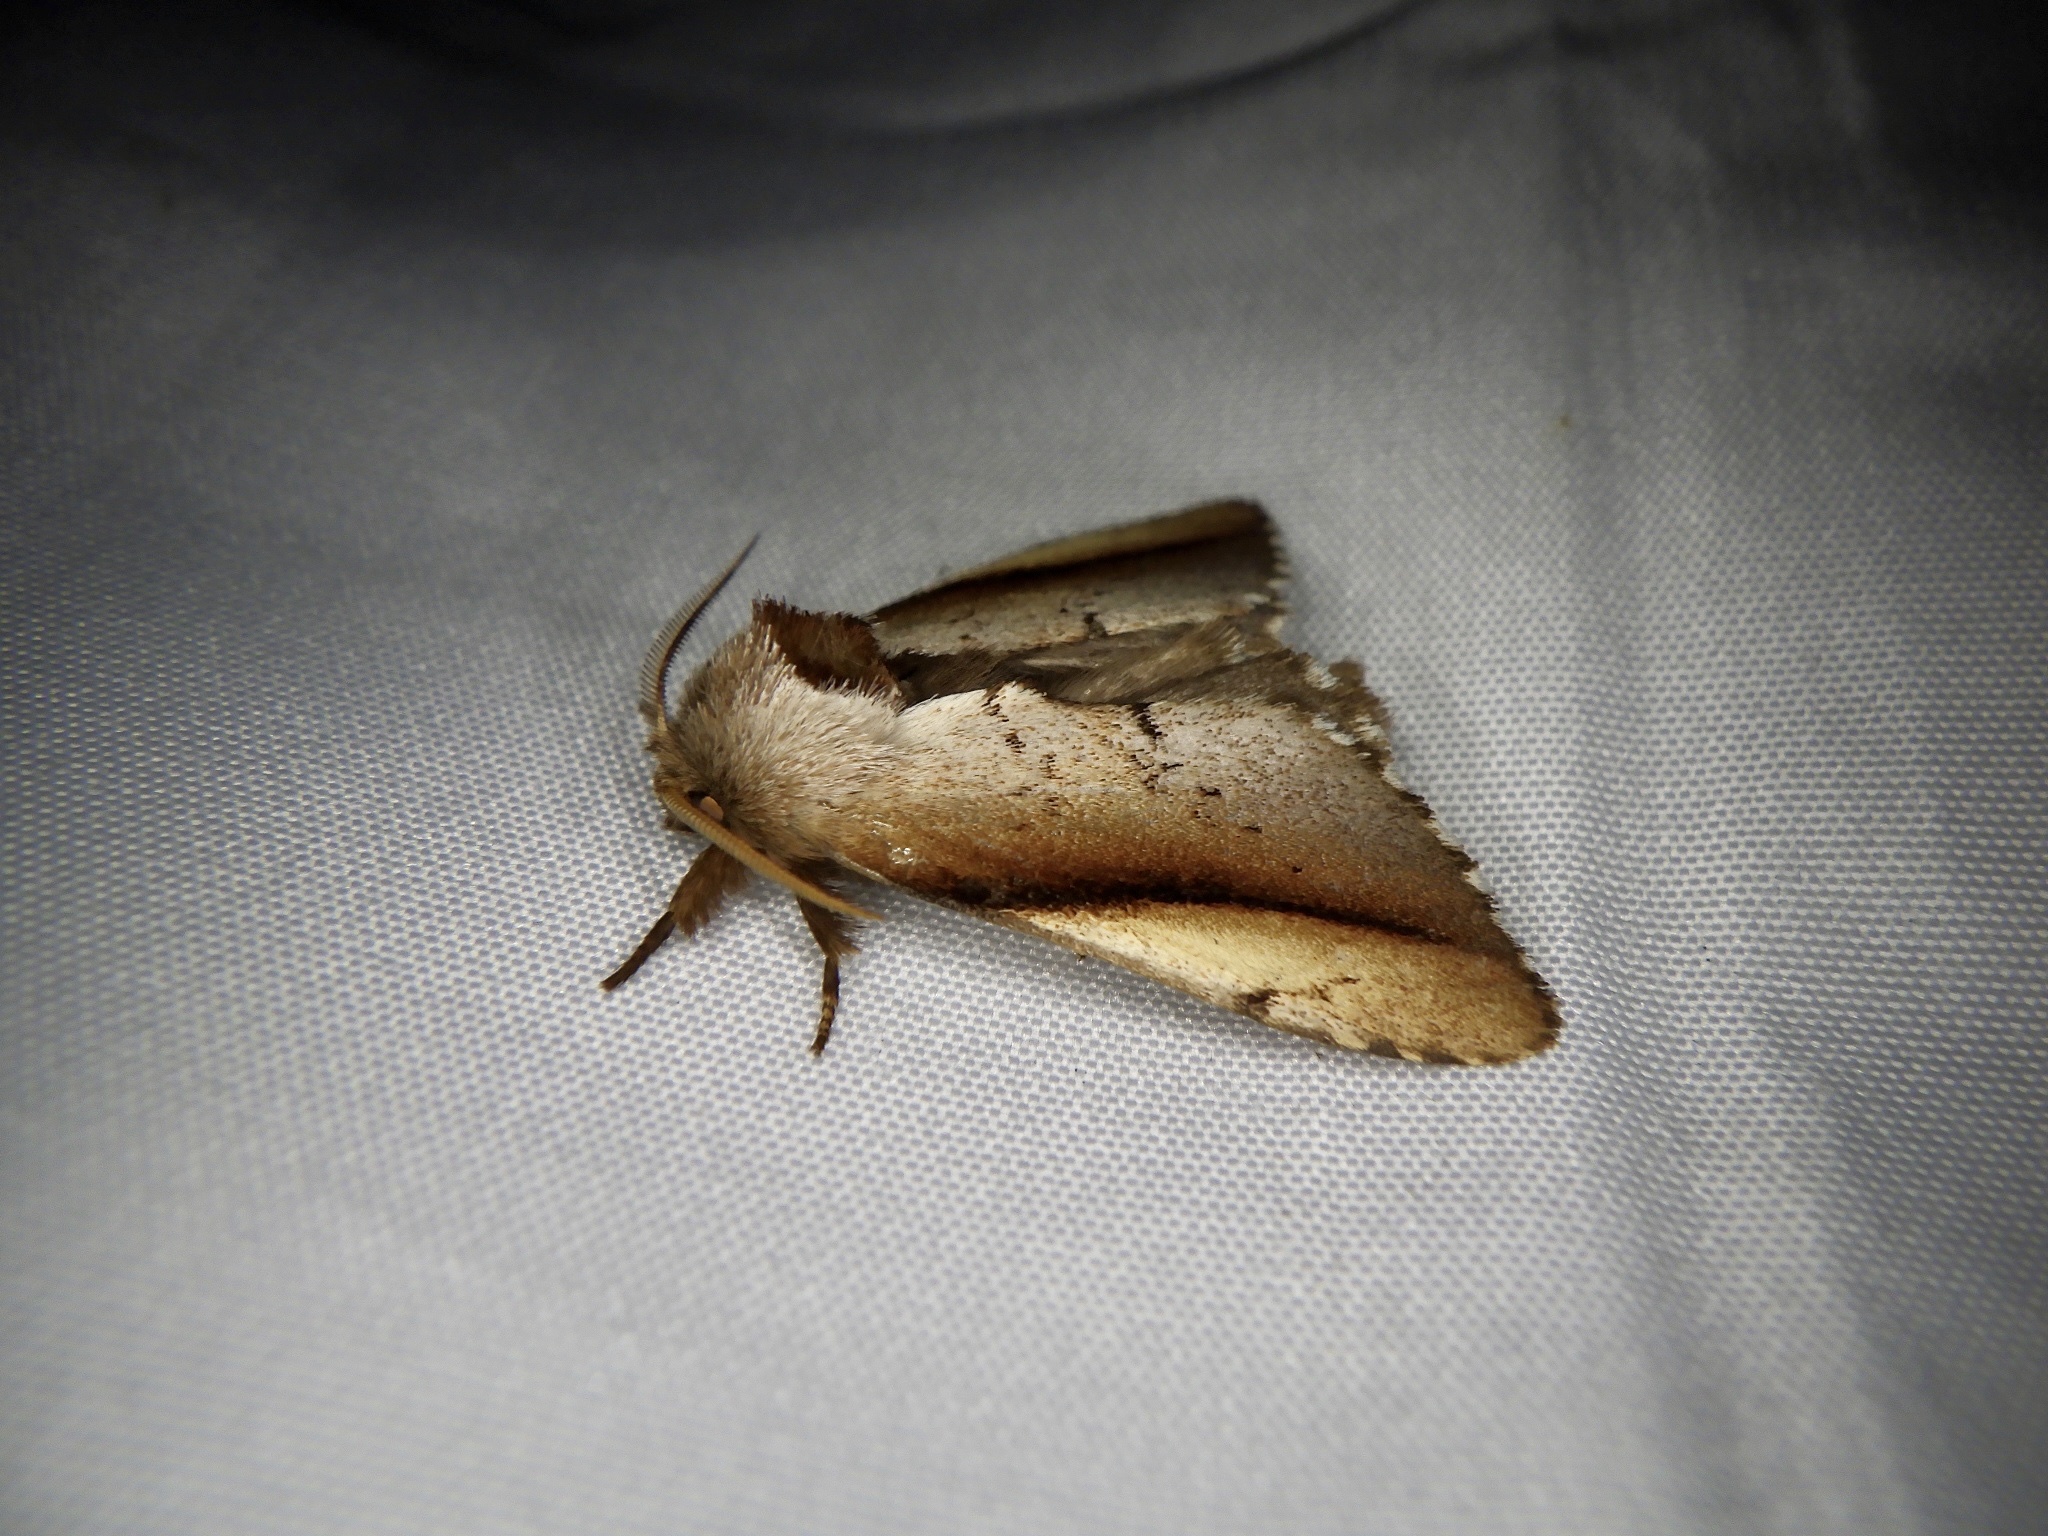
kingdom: Animalia
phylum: Arthropoda
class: Insecta
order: Lepidoptera
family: Notodontidae
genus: Togepteryx
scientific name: Togepteryx velutina
